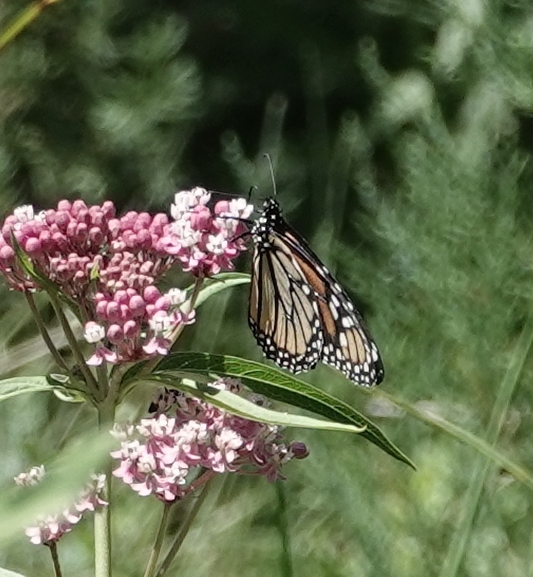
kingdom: Animalia
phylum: Arthropoda
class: Insecta
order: Lepidoptera
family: Nymphalidae
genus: Danaus
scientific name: Danaus plexippus
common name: Monarch
